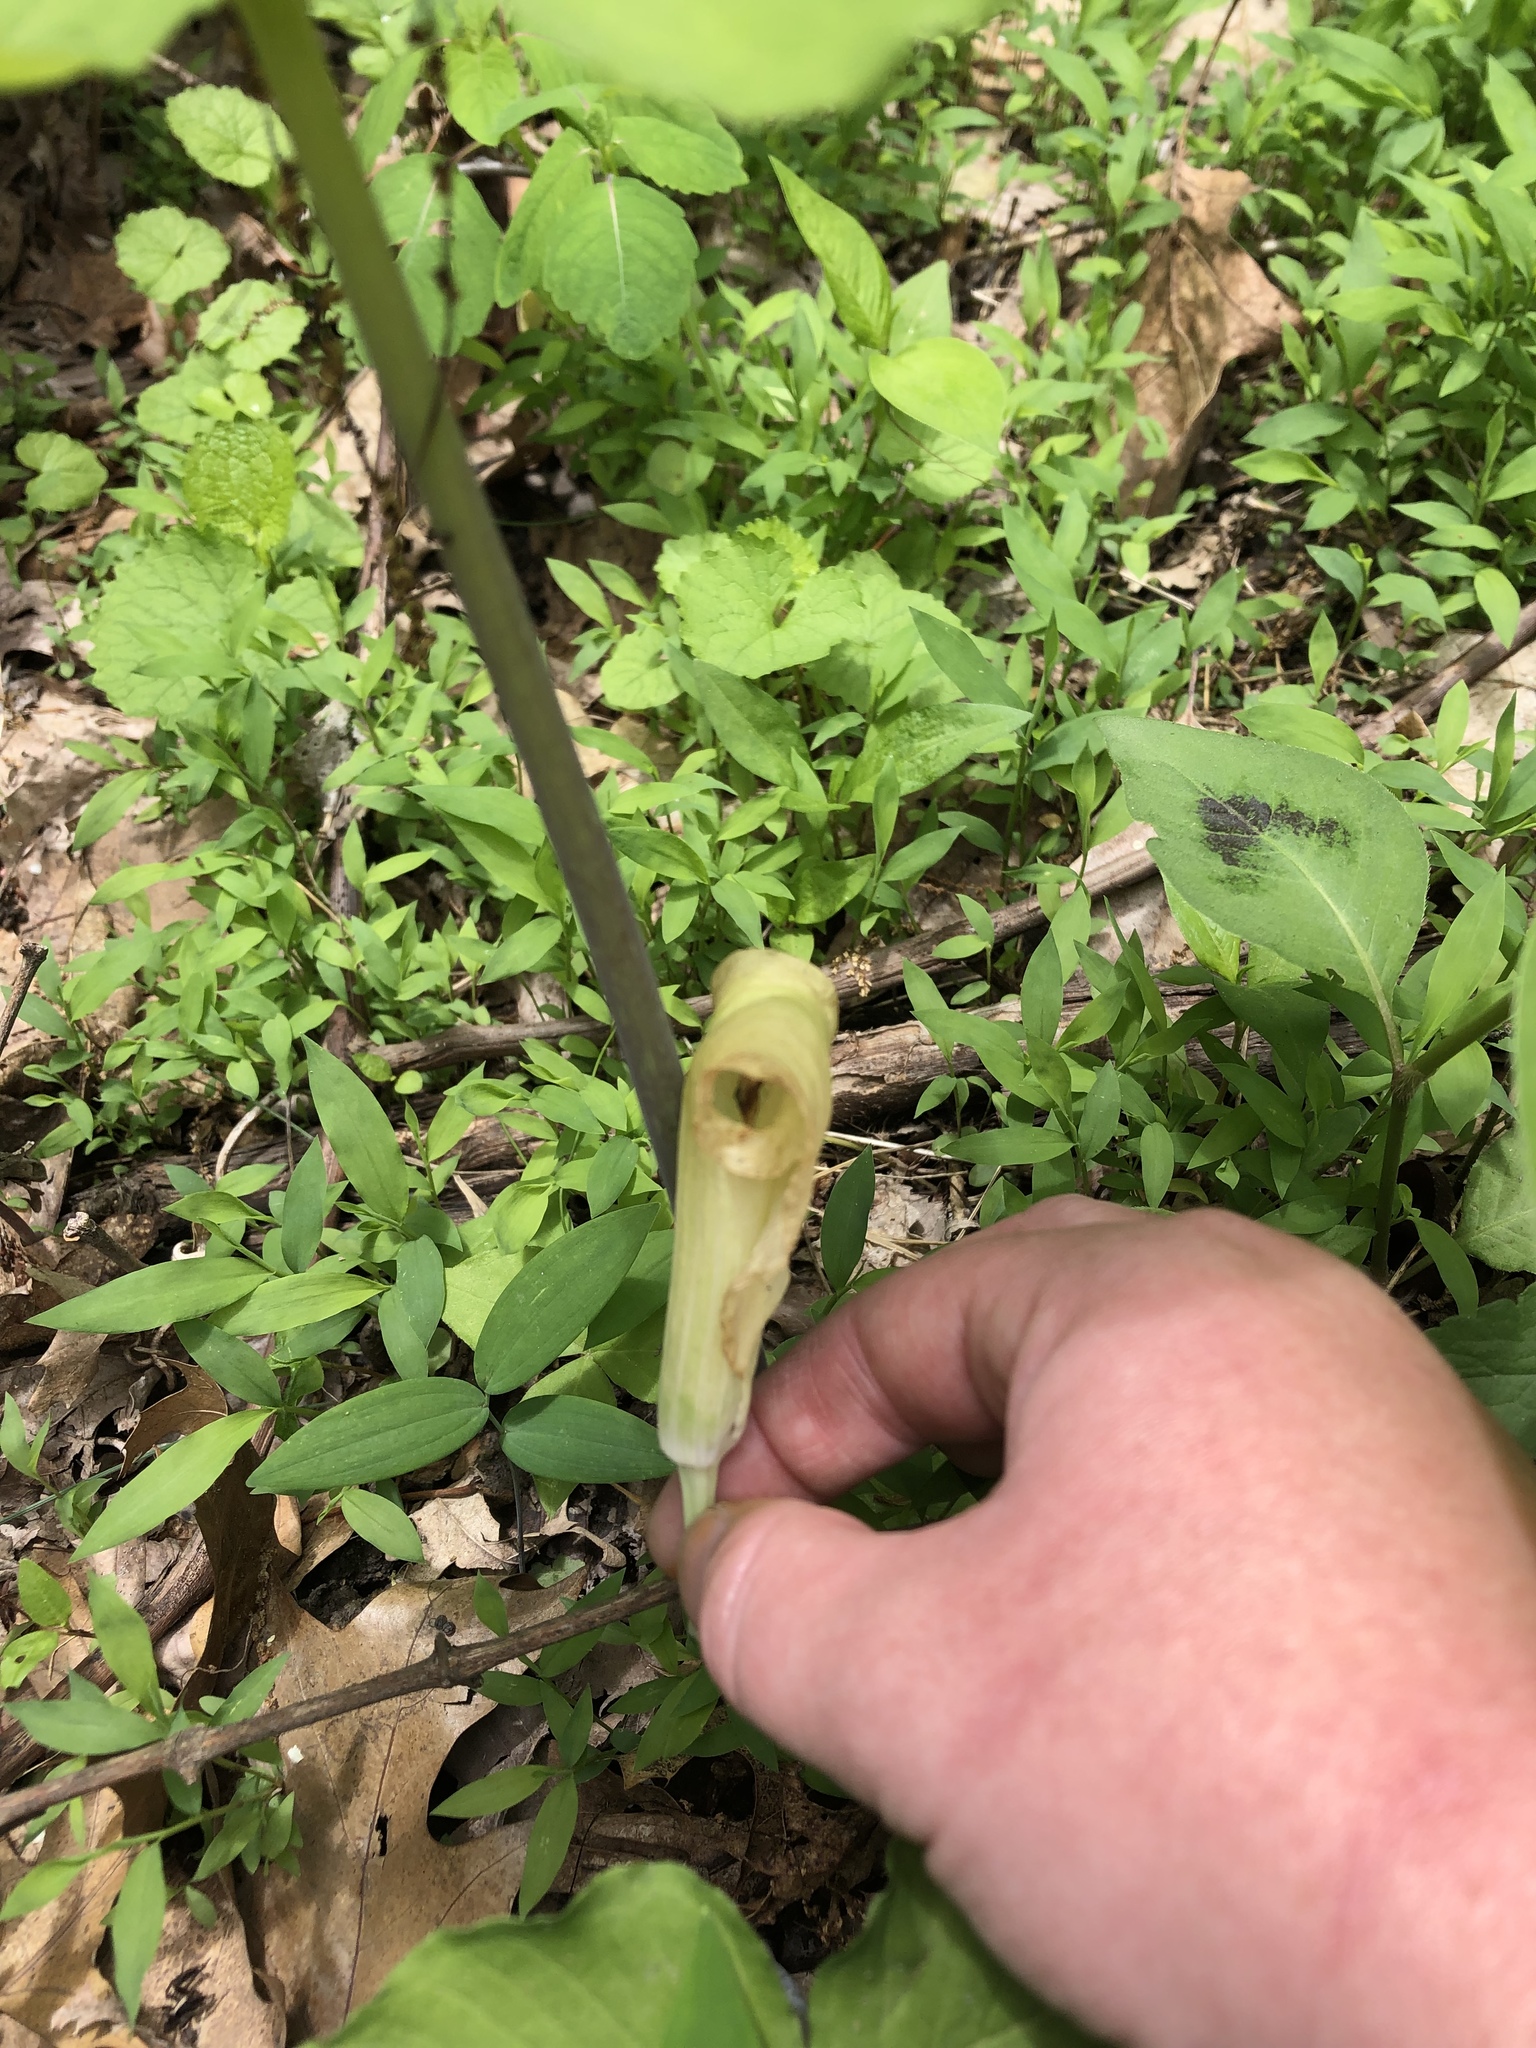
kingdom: Plantae
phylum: Tracheophyta
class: Liliopsida
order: Alismatales
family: Araceae
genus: Arisaema
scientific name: Arisaema triphyllum
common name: Jack-in-the-pulpit
